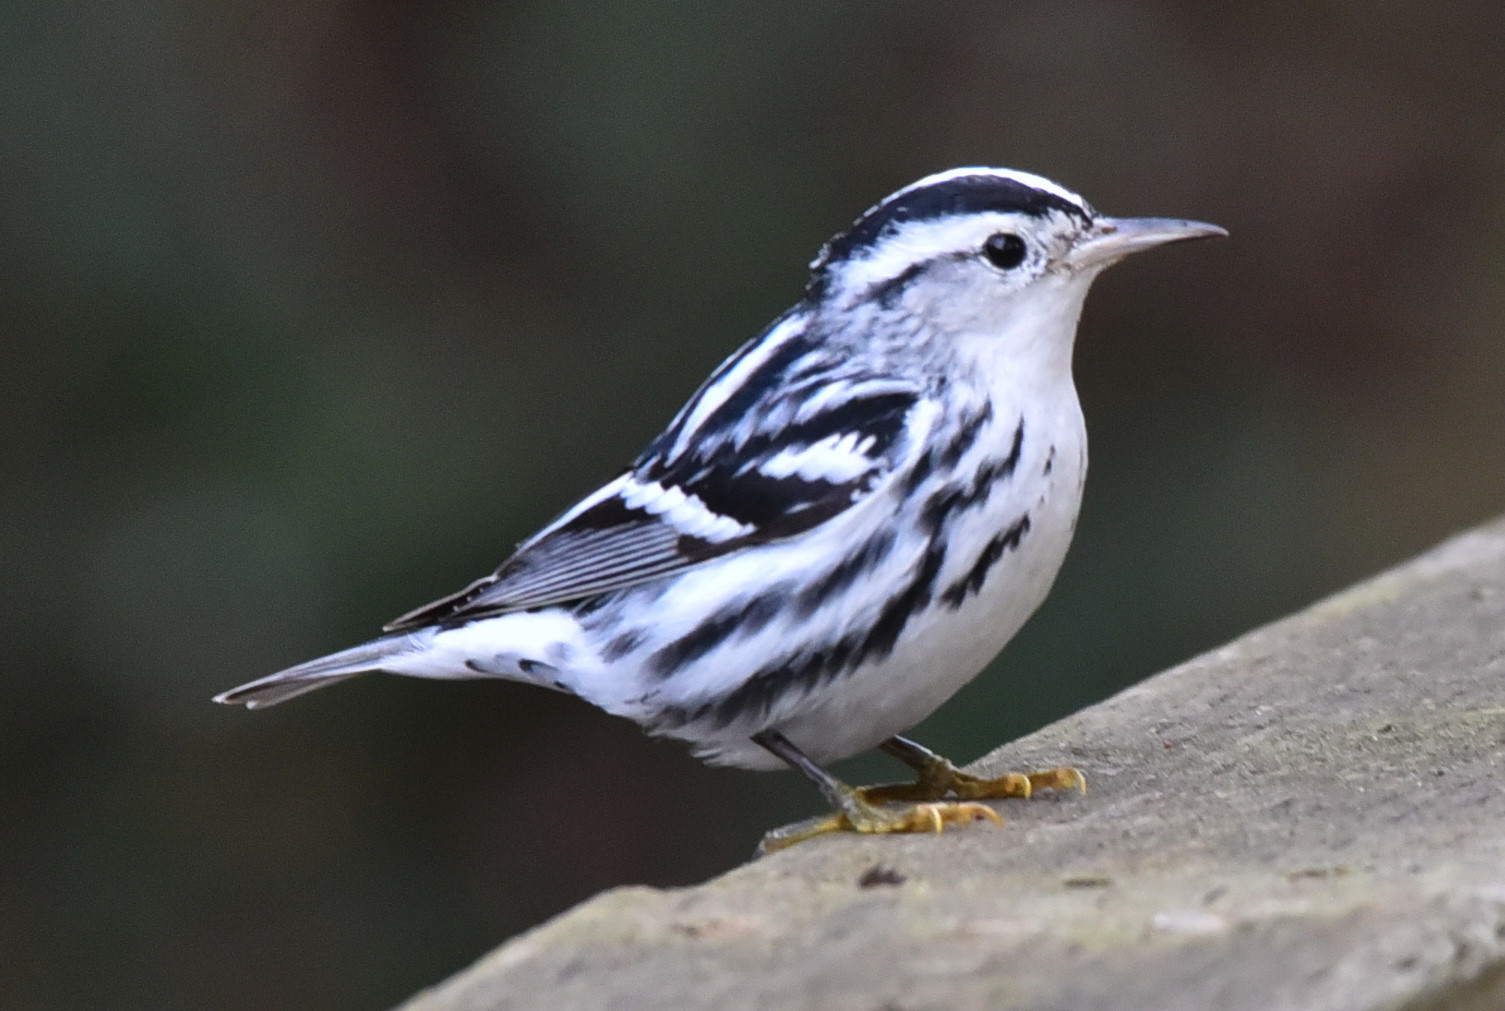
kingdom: Animalia
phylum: Chordata
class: Aves
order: Passeriformes
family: Parulidae
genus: Mniotilta
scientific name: Mniotilta varia
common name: Black-and-white warbler
